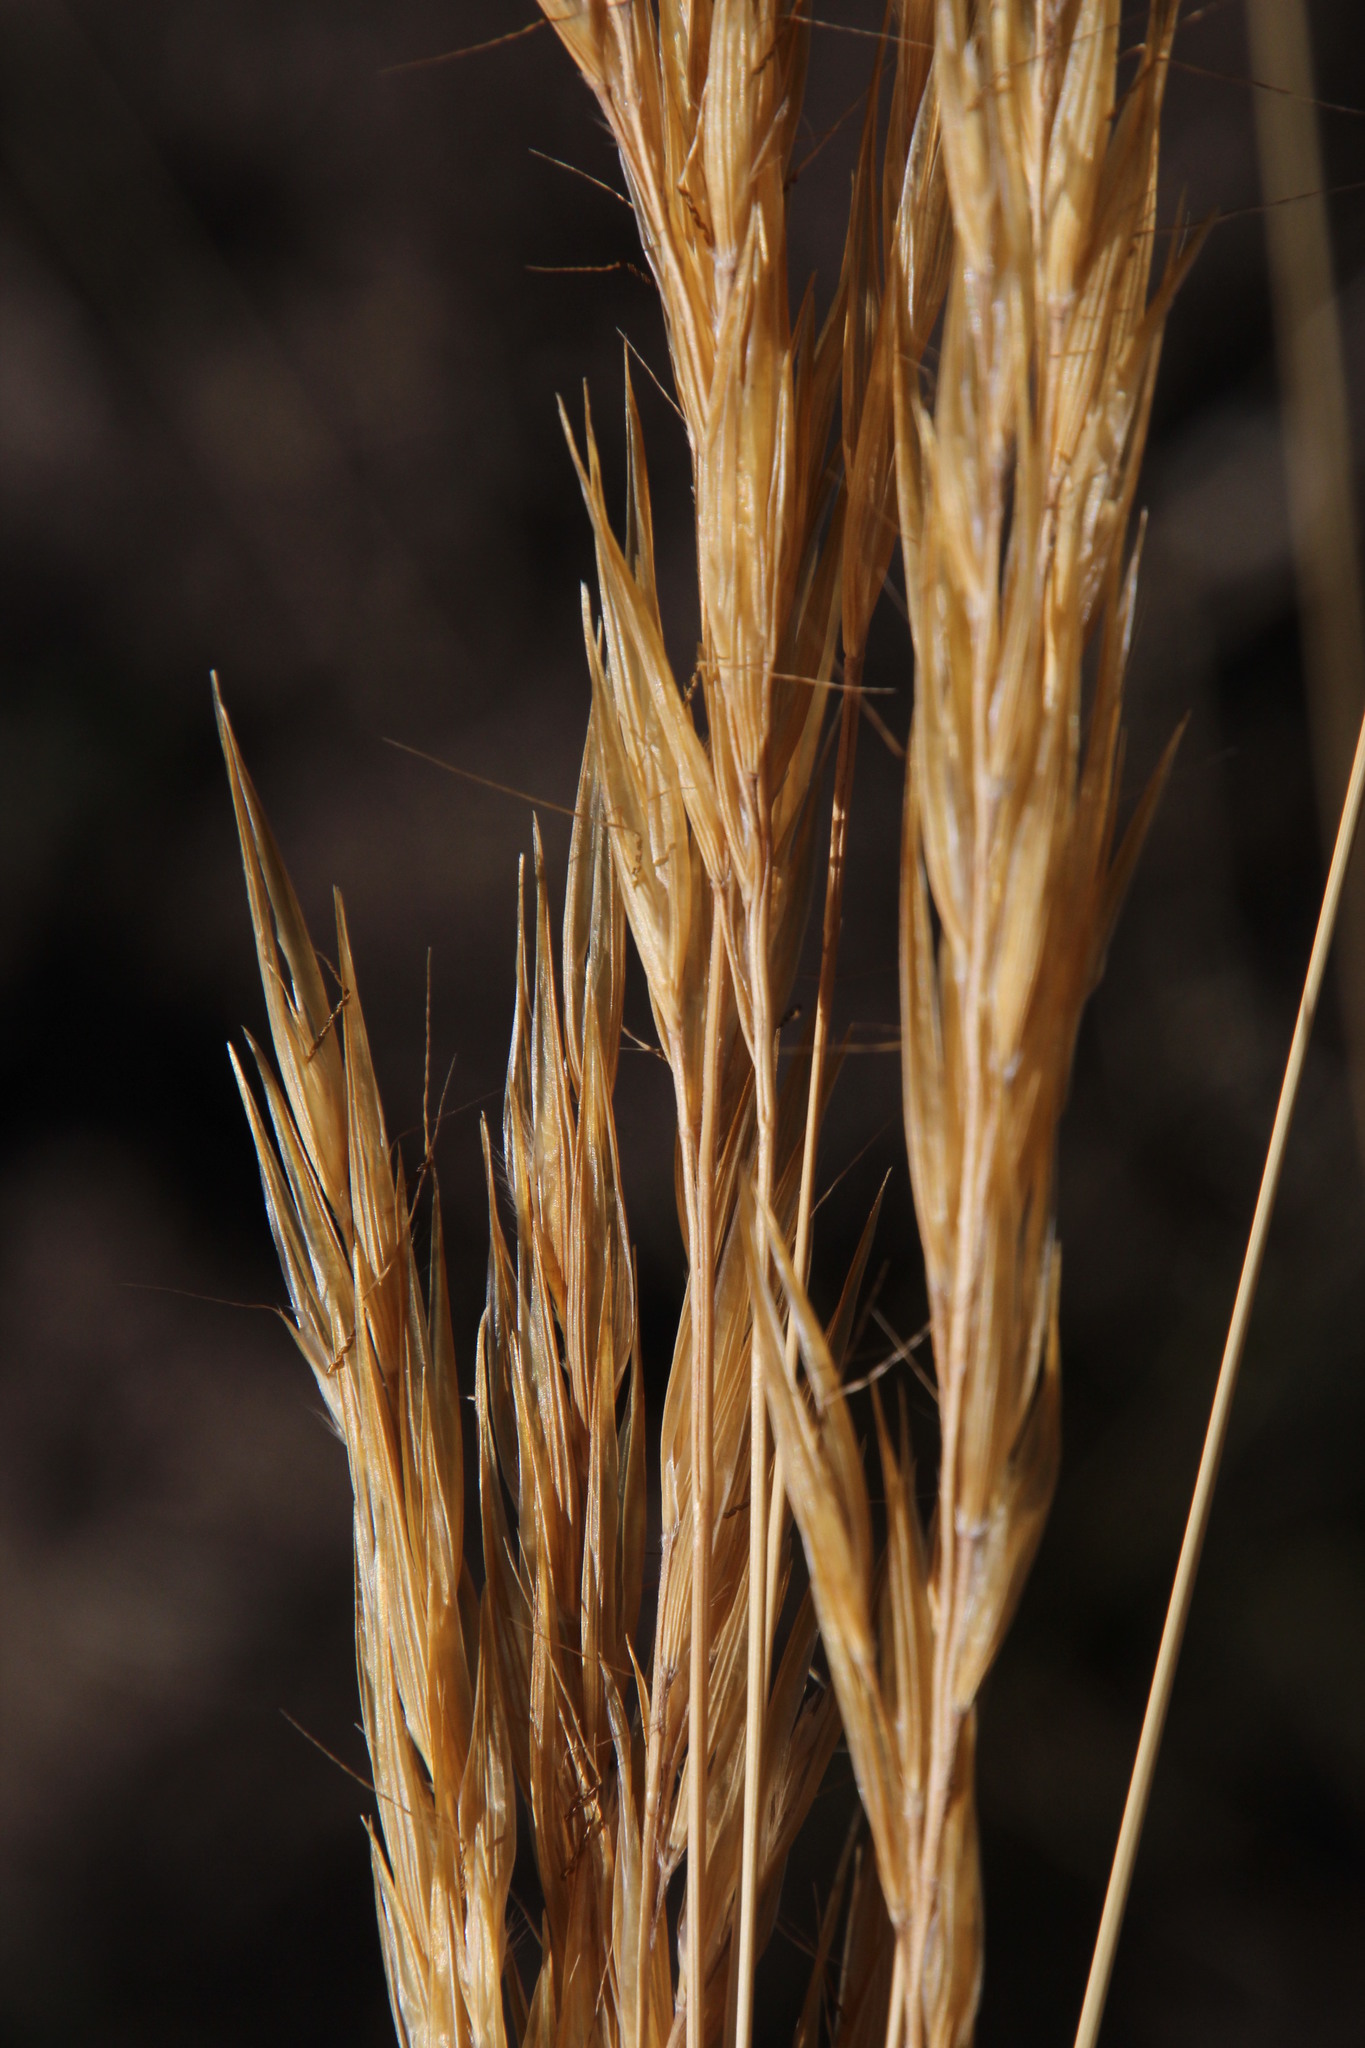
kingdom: Plantae
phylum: Tracheophyta
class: Liliopsida
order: Poales
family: Poaceae
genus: Tenaxia
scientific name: Tenaxia stricta
